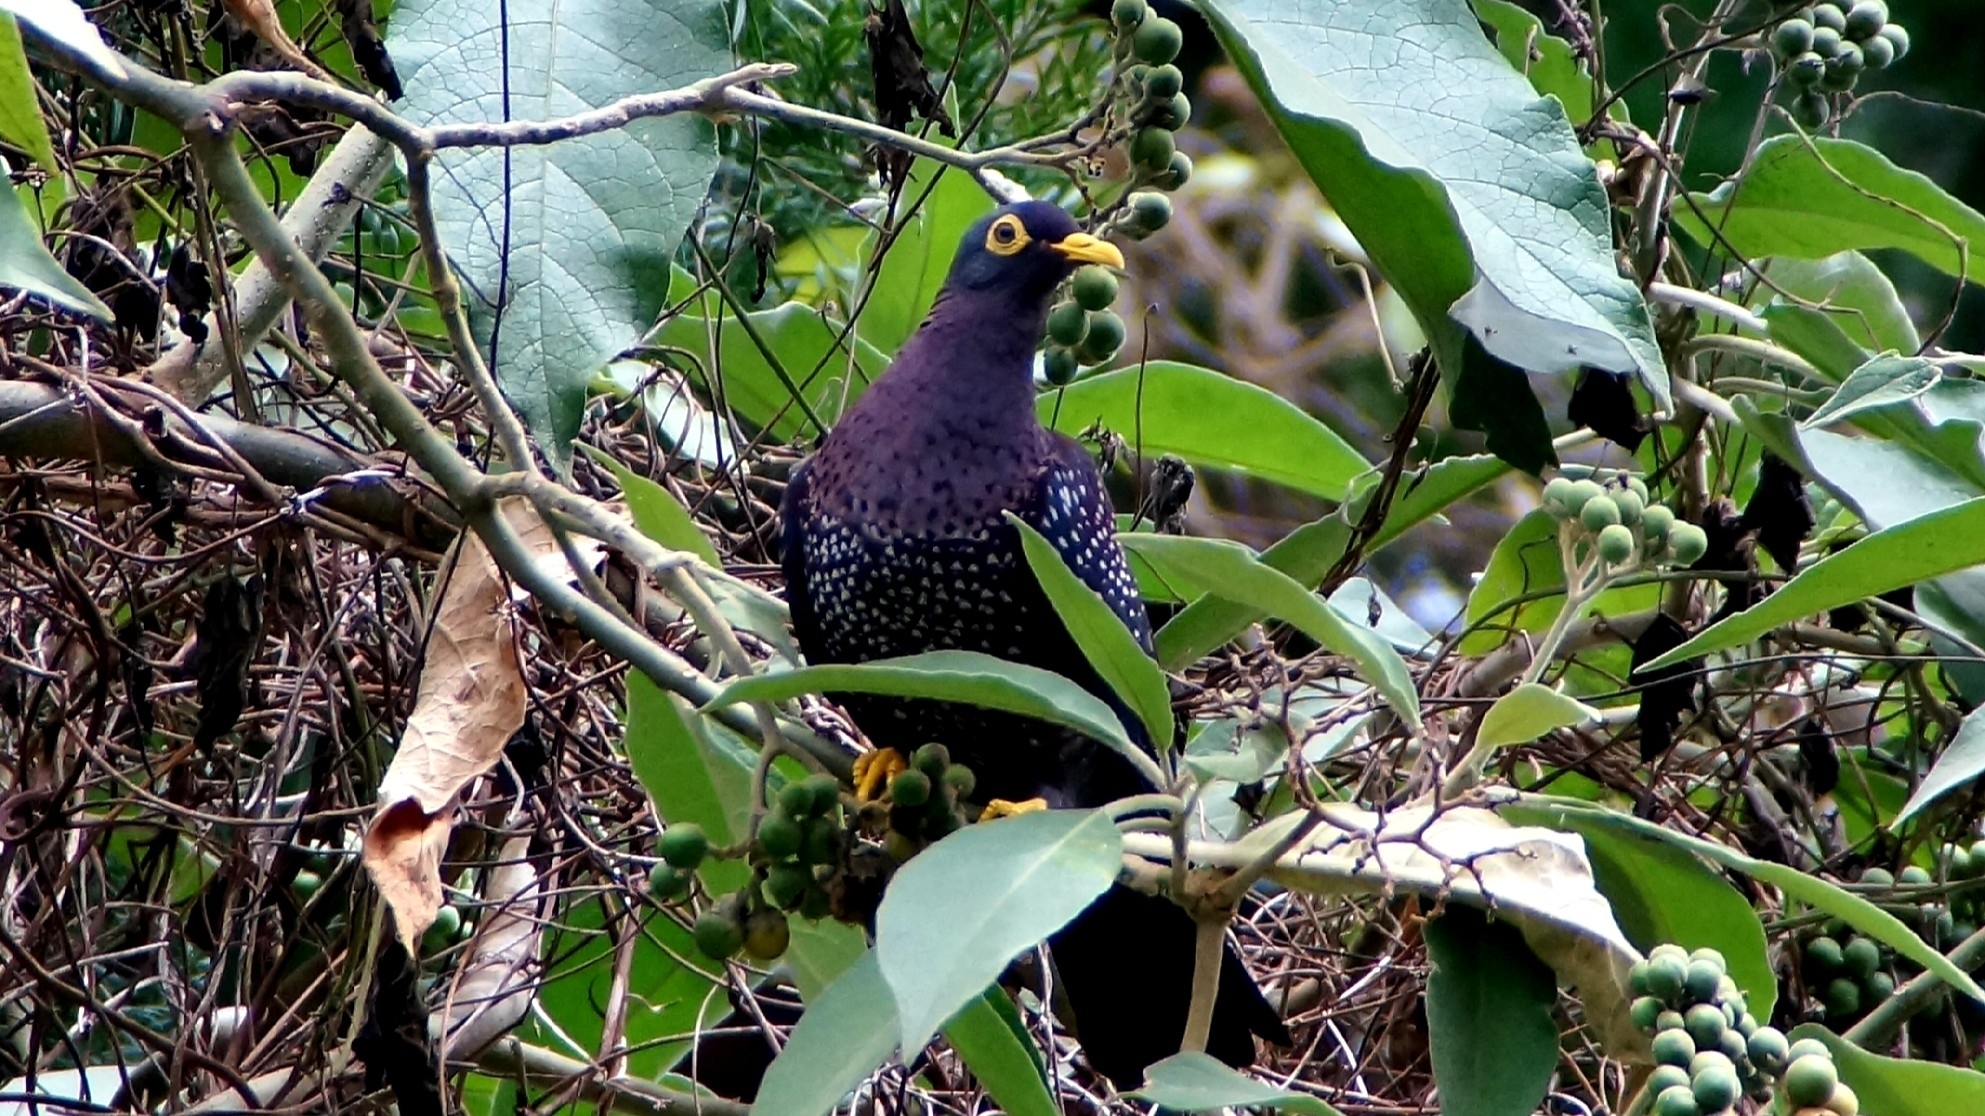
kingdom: Animalia
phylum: Chordata
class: Aves
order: Columbiformes
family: Columbidae
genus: Columba
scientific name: Columba arquatrix
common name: African olive pigeon
